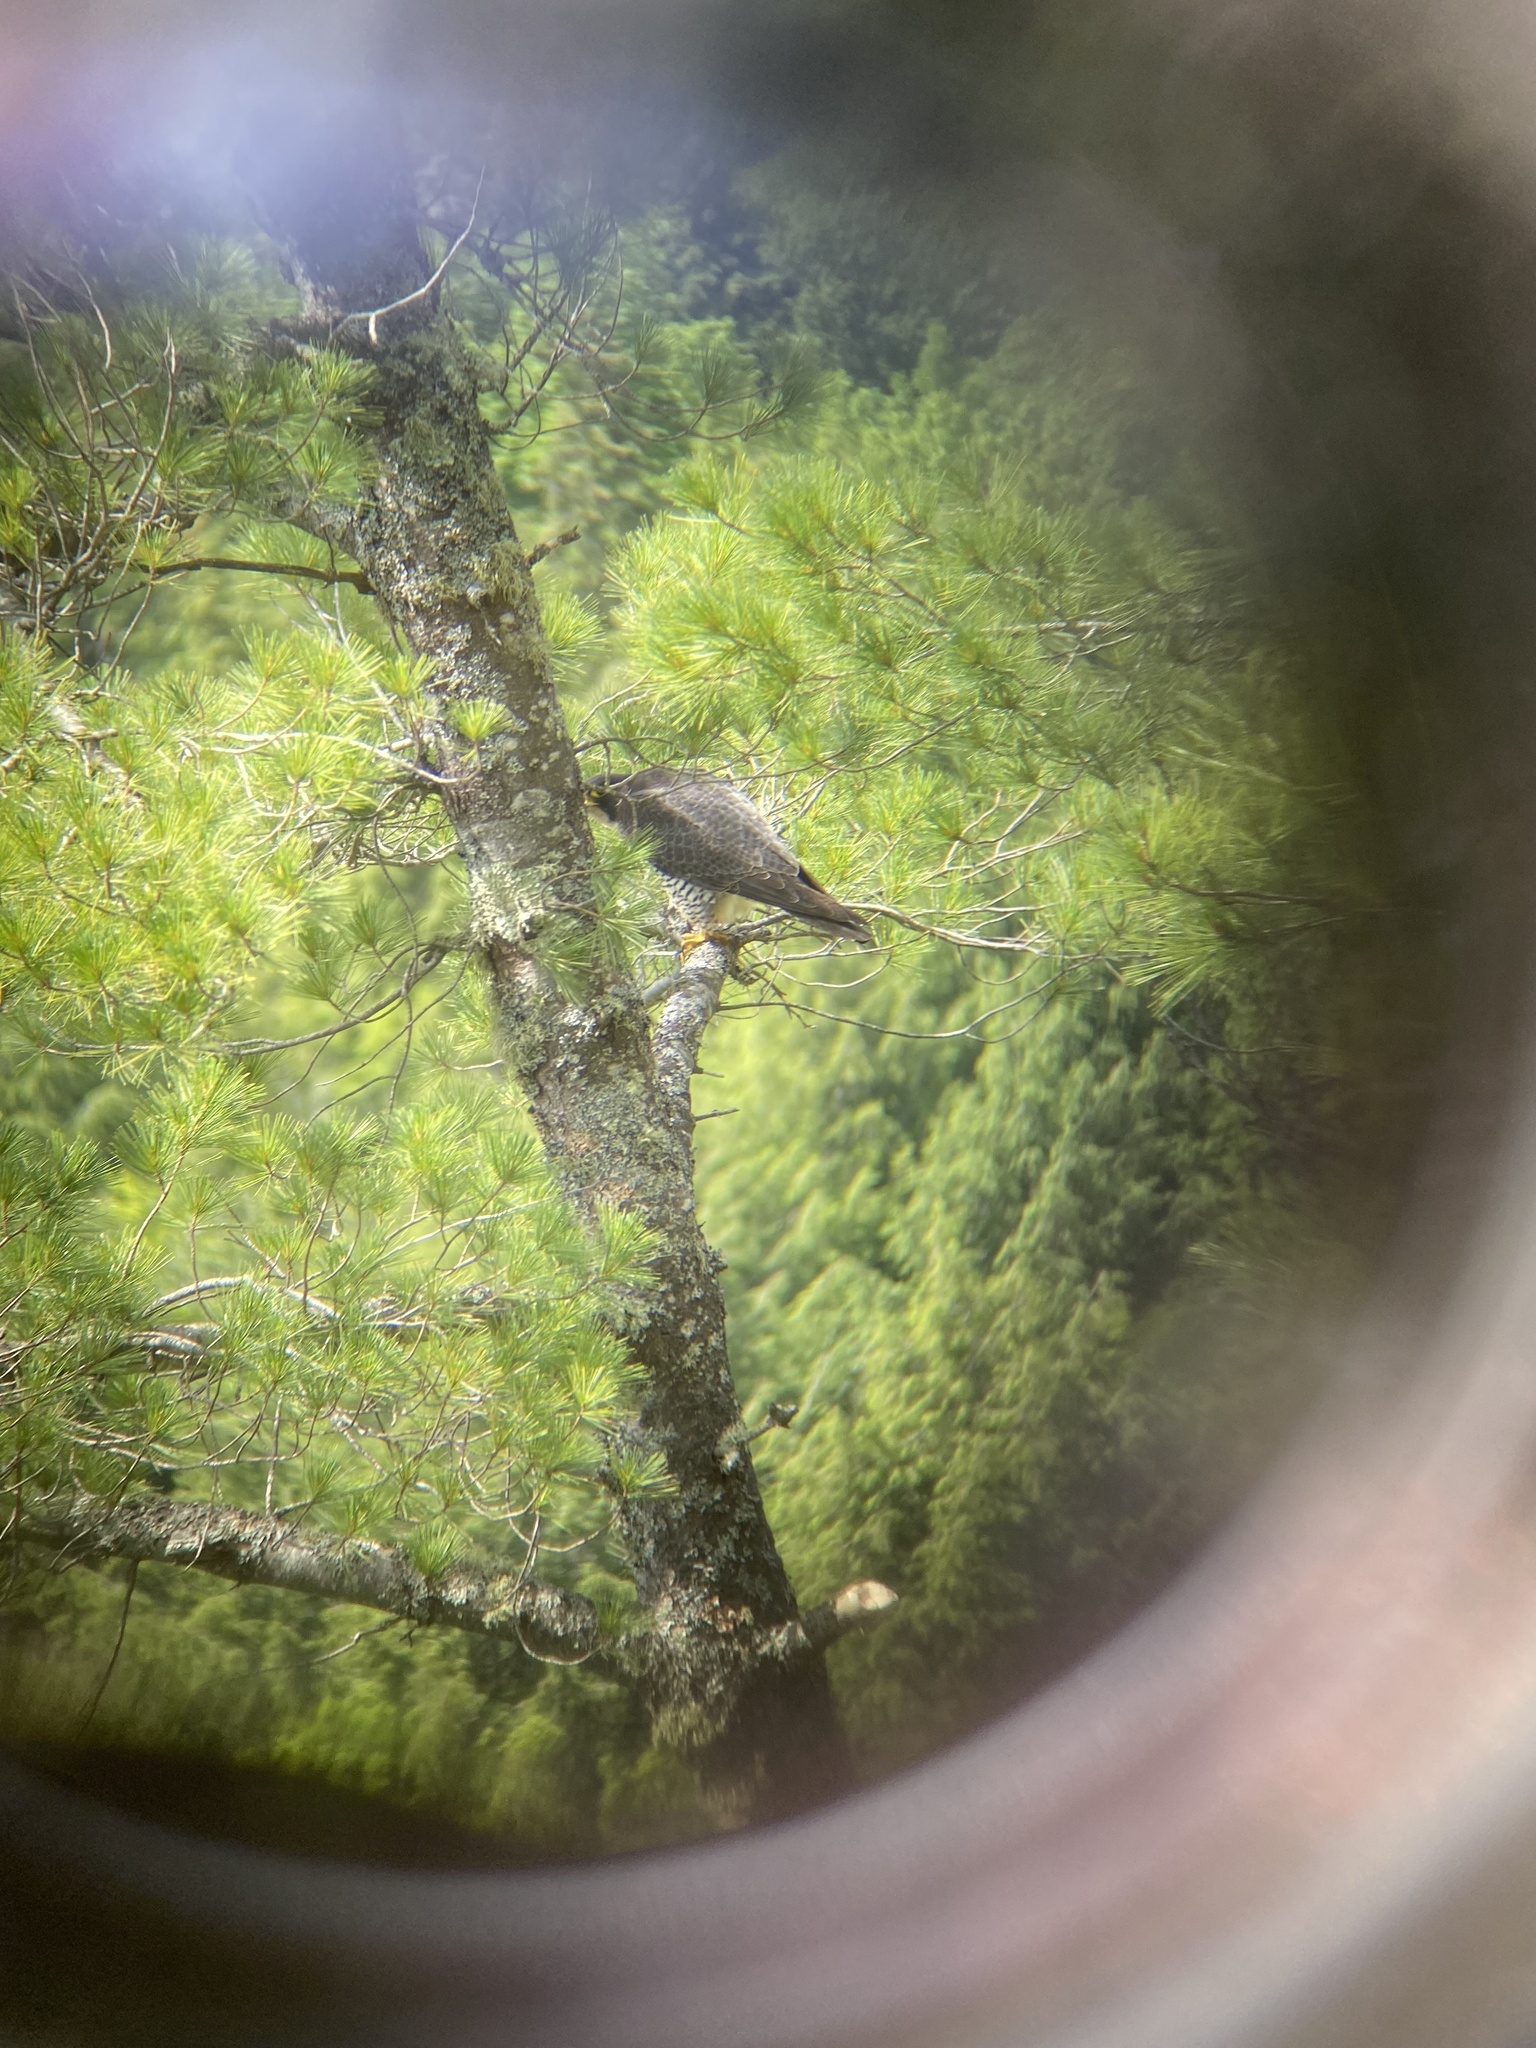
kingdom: Animalia
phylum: Chordata
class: Aves
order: Falconiformes
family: Falconidae
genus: Falco
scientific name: Falco peregrinus
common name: Peregrine falcon
